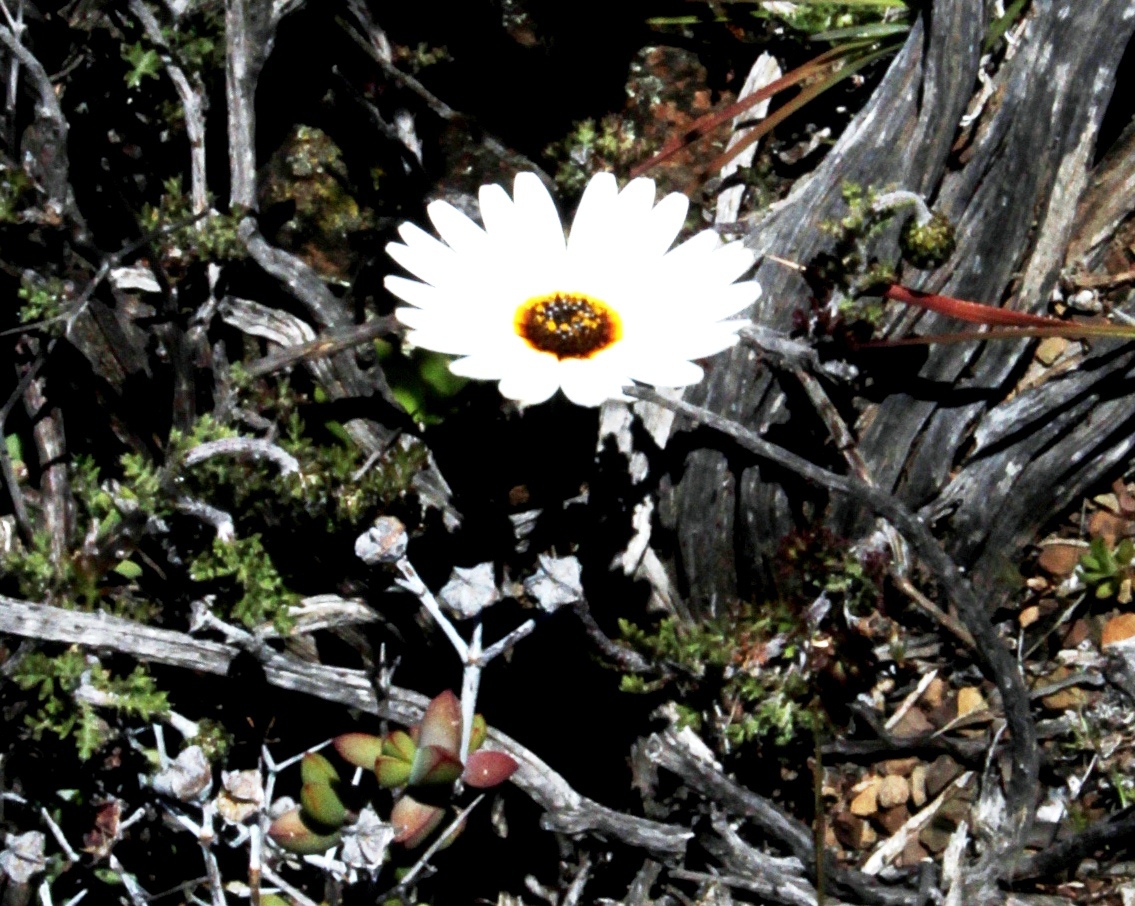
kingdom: Plantae
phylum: Tracheophyta
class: Magnoliopsida
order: Asterales
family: Asteraceae
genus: Ursinia
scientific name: Ursinia pilifera
